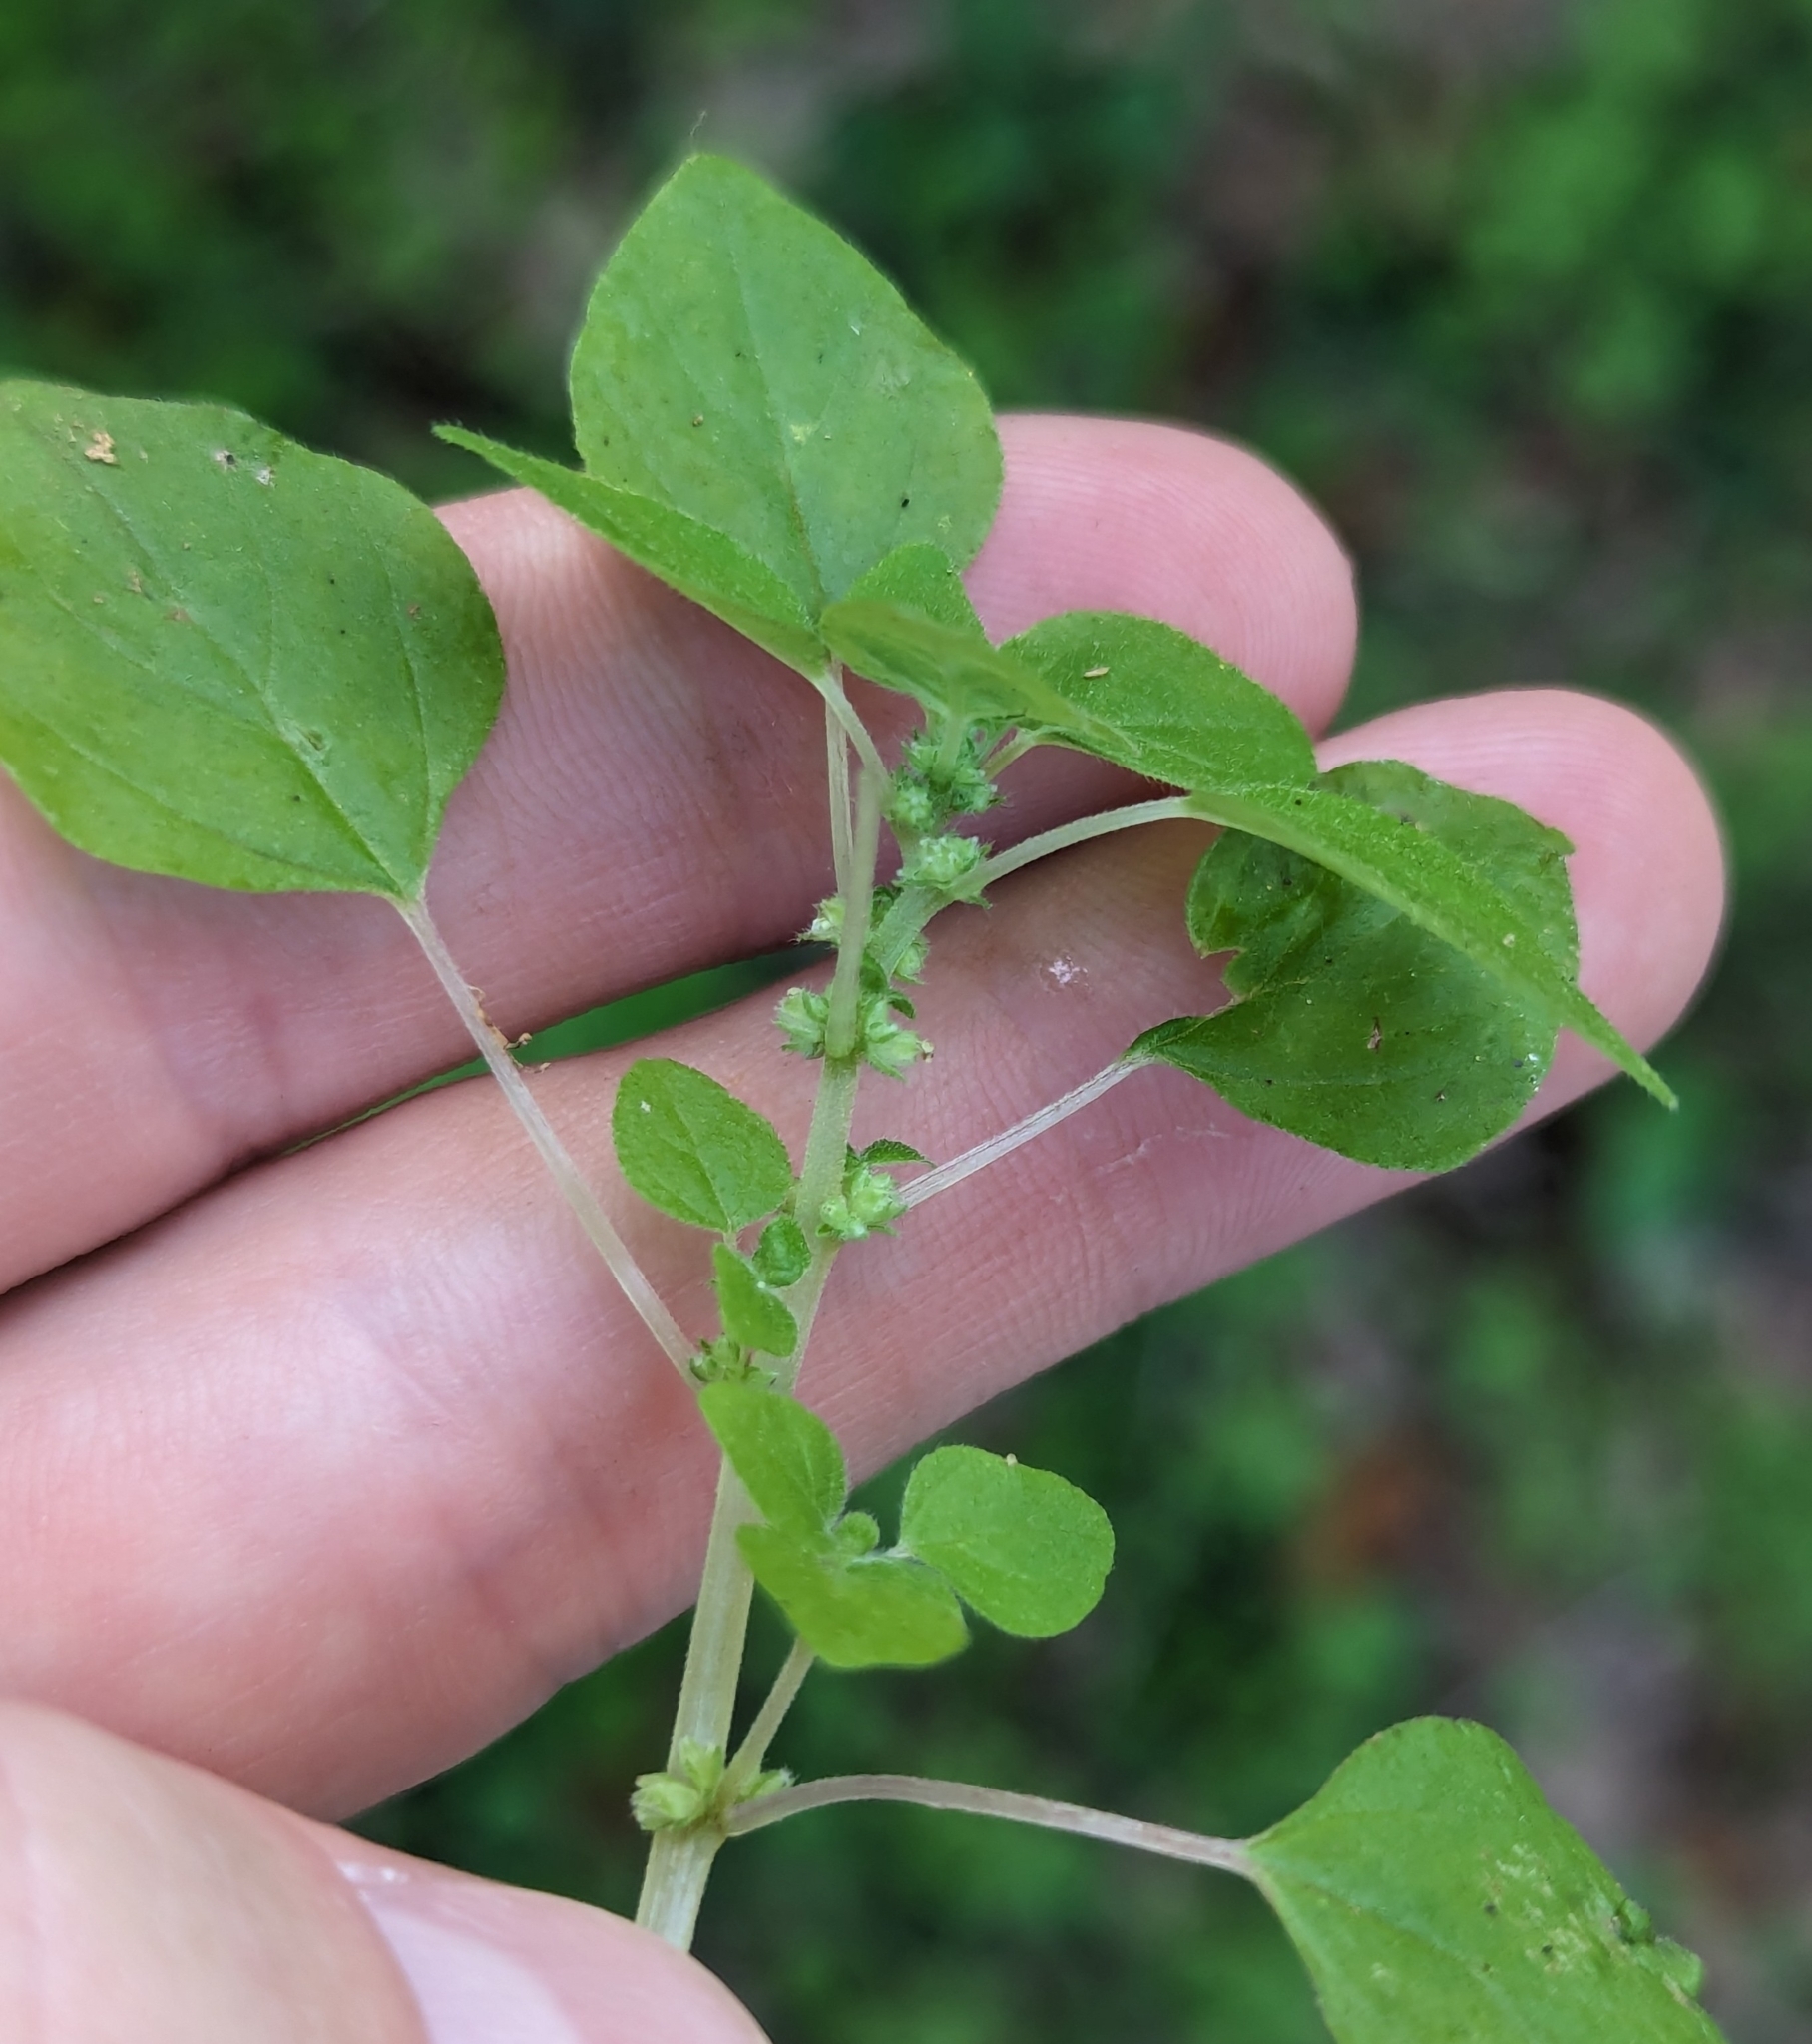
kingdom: Plantae
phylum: Tracheophyta
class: Magnoliopsida
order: Rosales
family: Urticaceae
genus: Parietaria
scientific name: Parietaria floridana
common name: Florida pellitory
